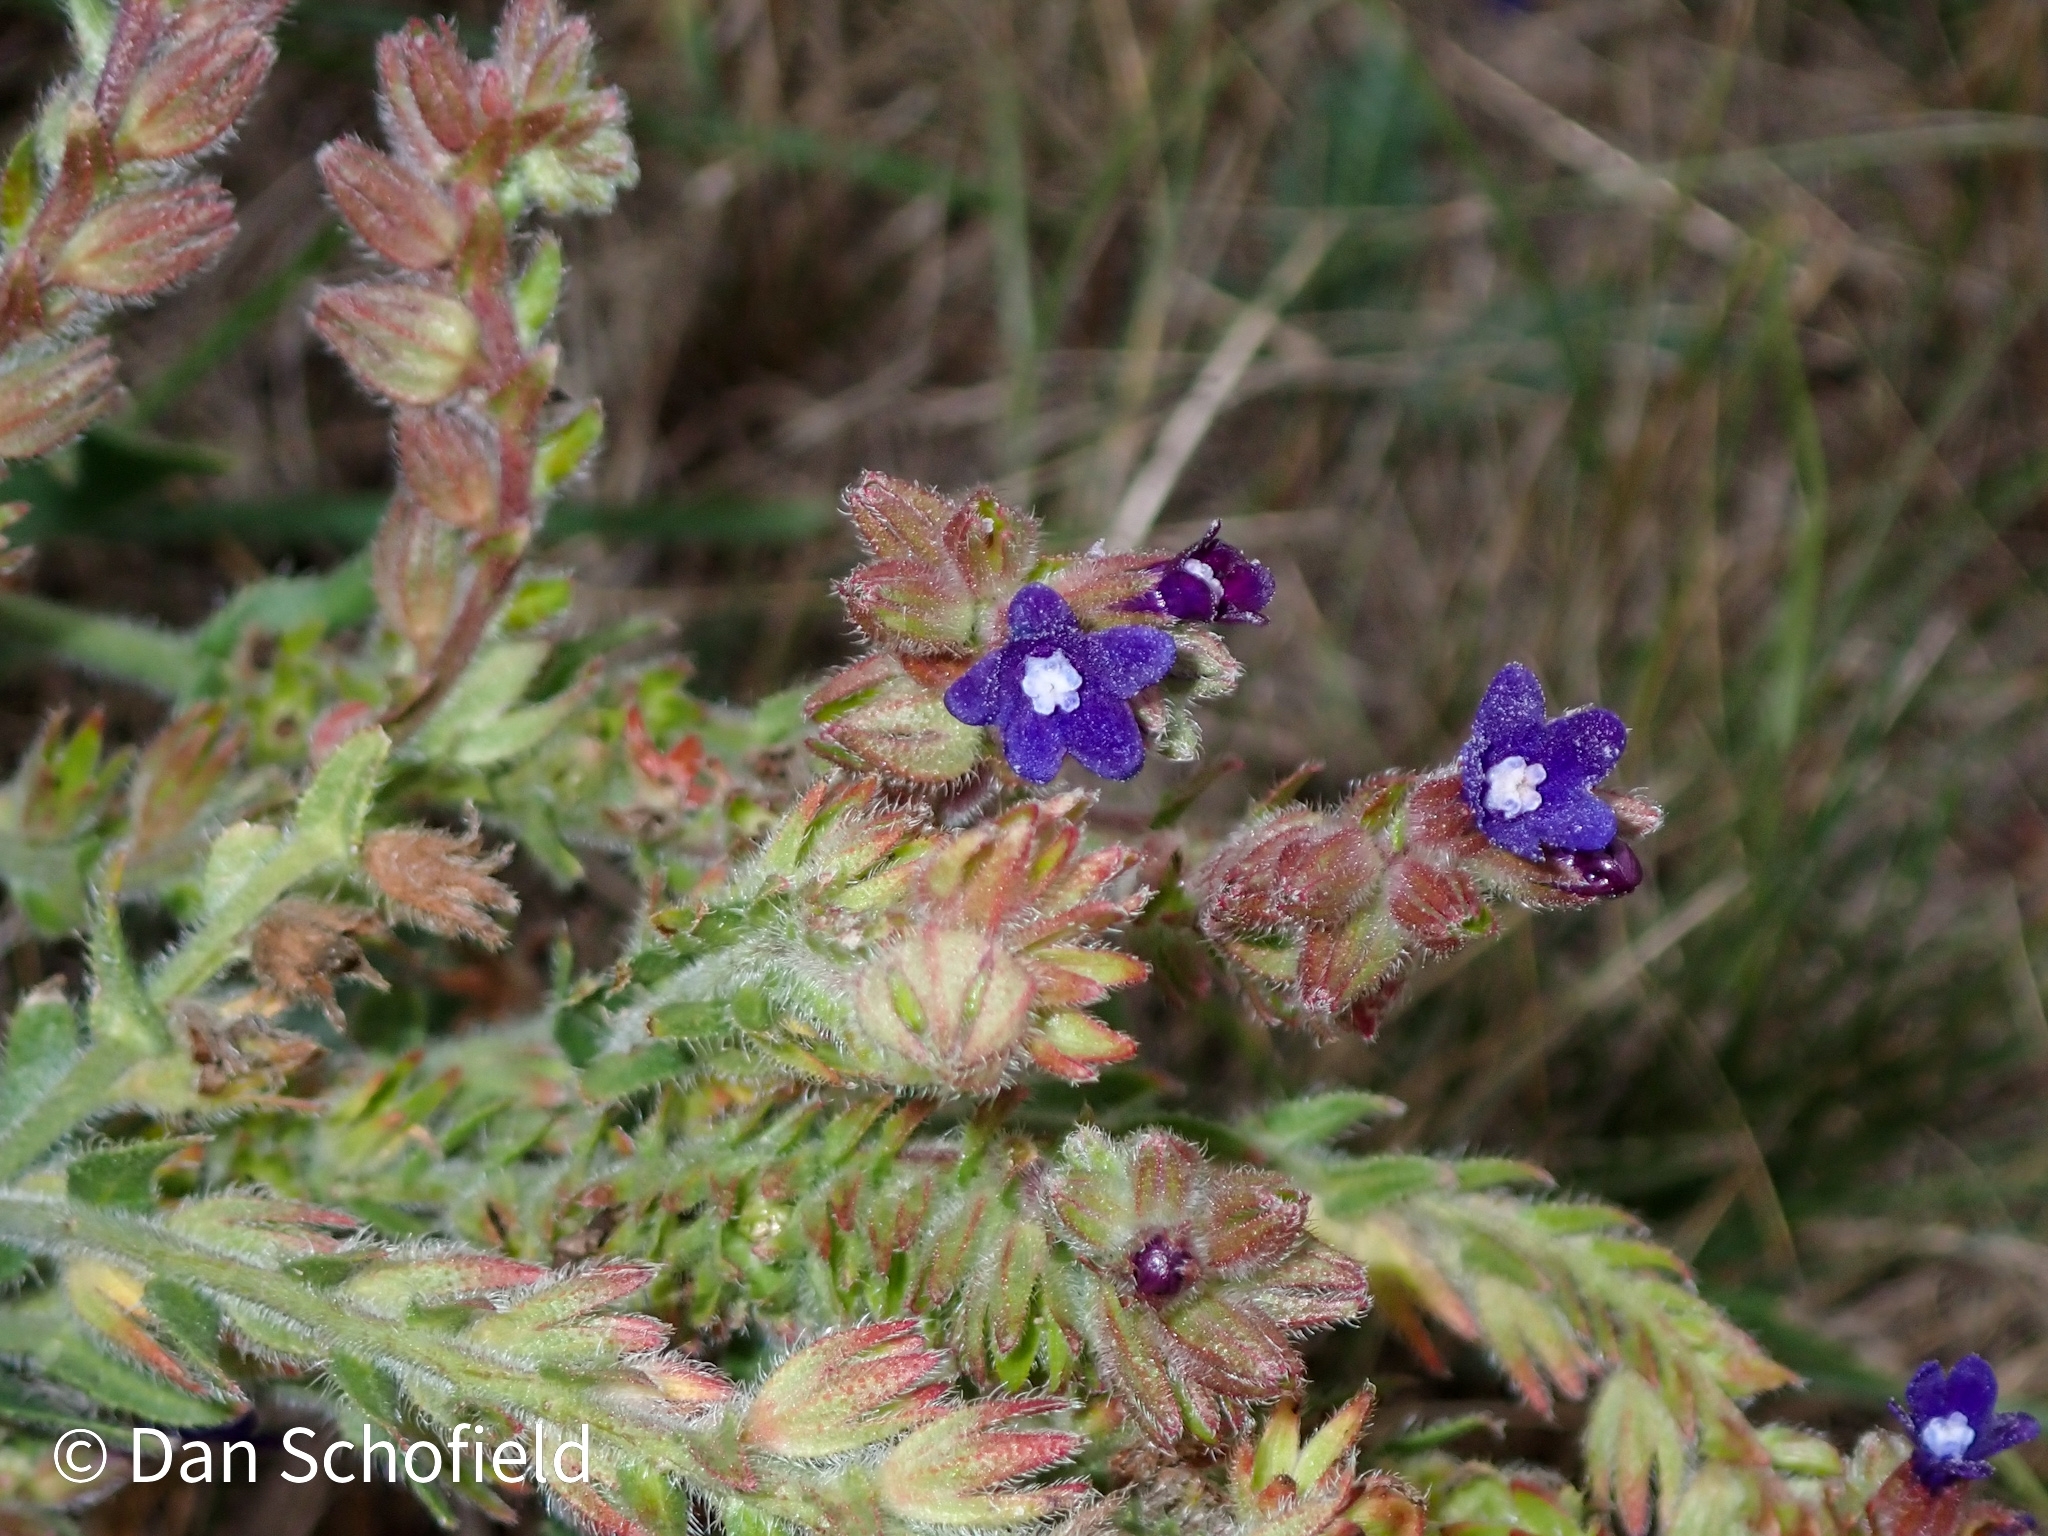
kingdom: Plantae
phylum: Tracheophyta
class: Magnoliopsida
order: Boraginales
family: Boraginaceae
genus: Anchusa
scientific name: Anchusa officinalis
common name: Alkanet
